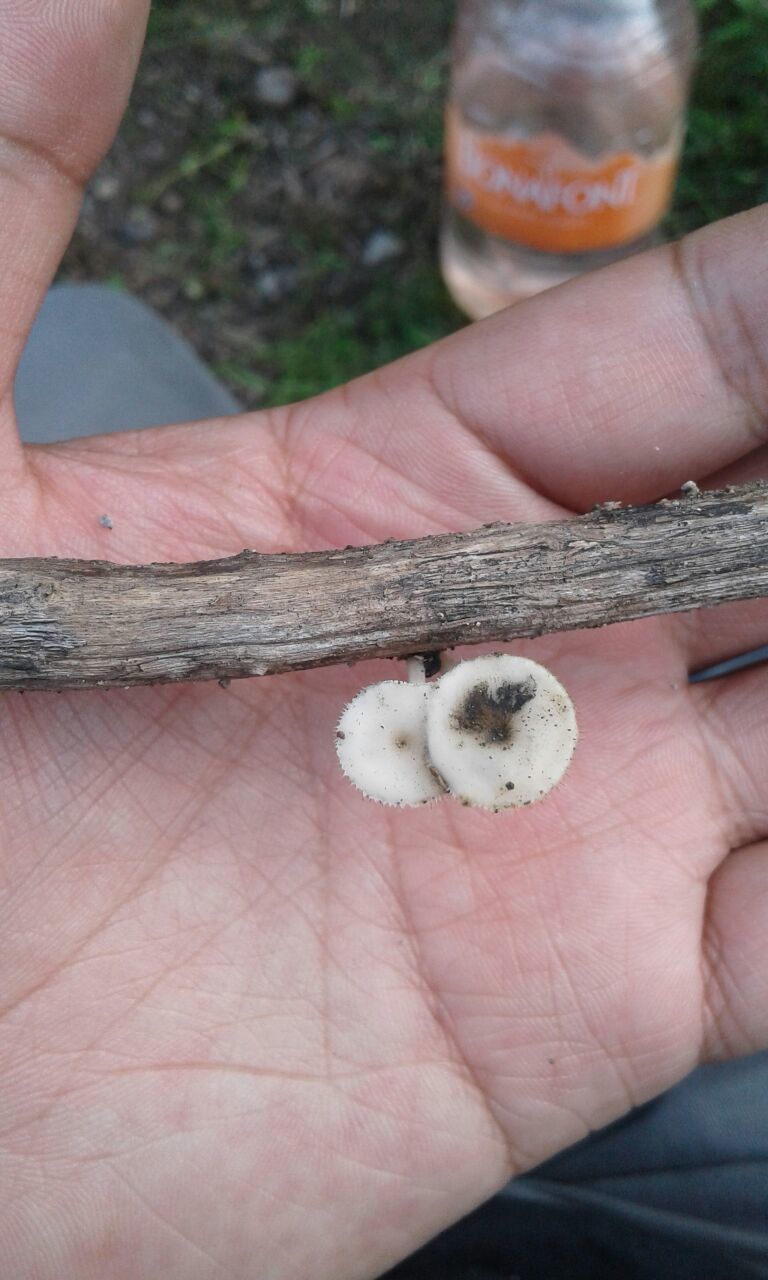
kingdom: Fungi
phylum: Basidiomycota
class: Agaricomycetes
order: Polyporales
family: Polyporaceae
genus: Lentinus
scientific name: Lentinus flexipes
